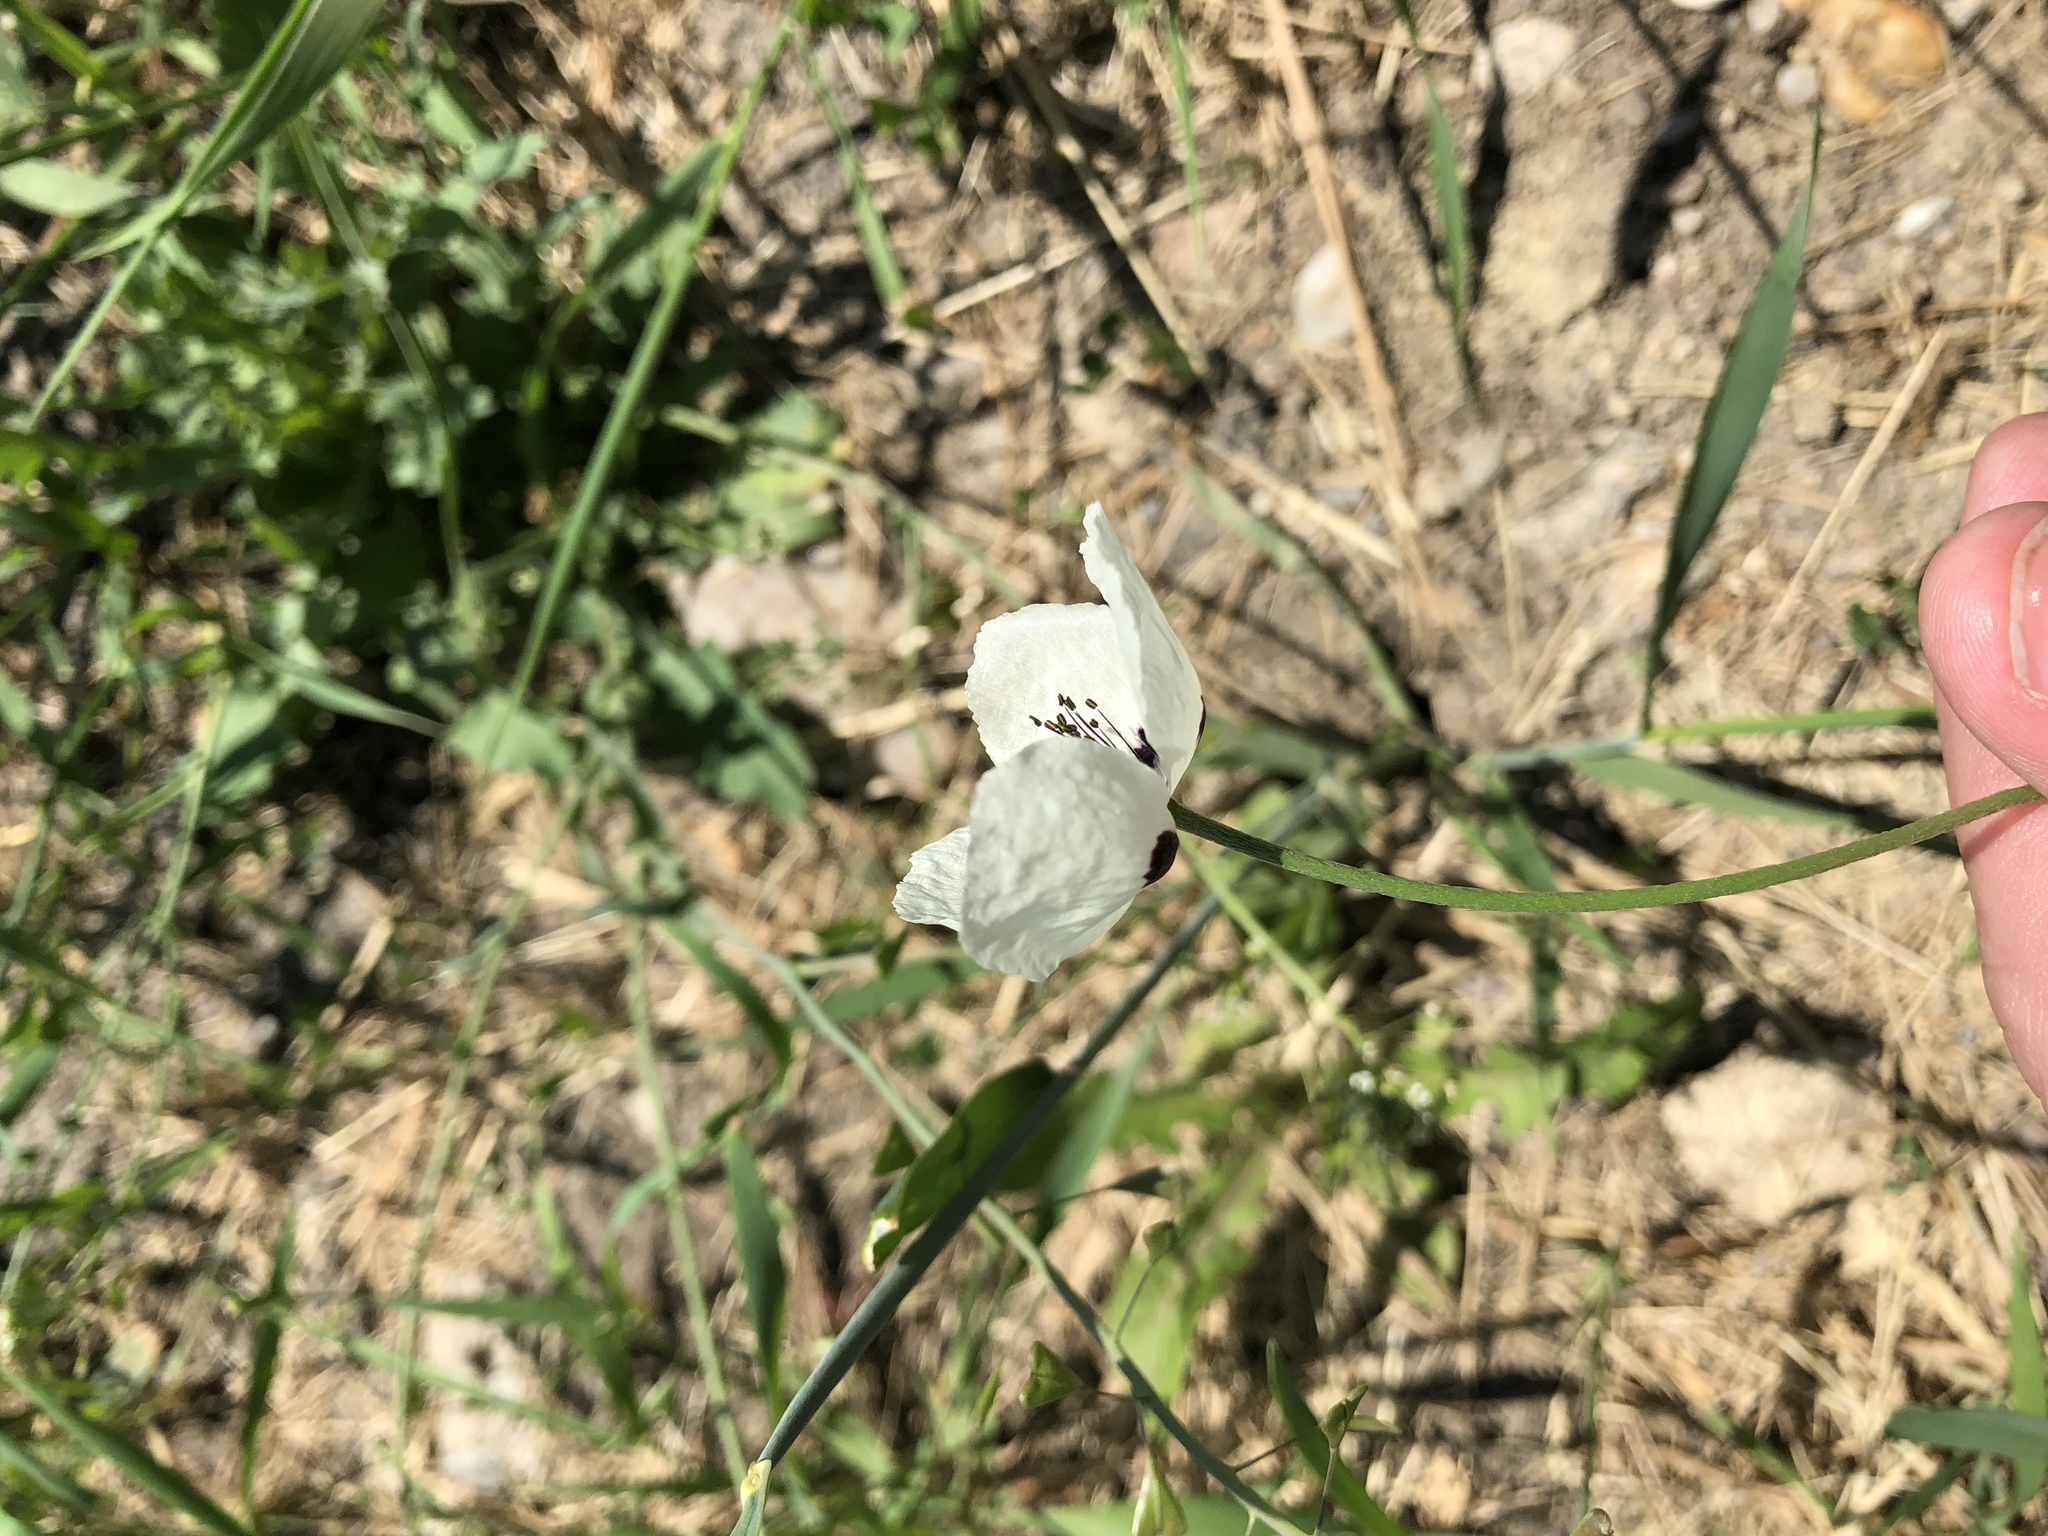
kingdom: Plantae
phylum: Tracheophyta
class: Magnoliopsida
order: Ranunculales
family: Papaveraceae
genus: Papaver
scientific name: Papaver dubium
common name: Long-headed poppy
